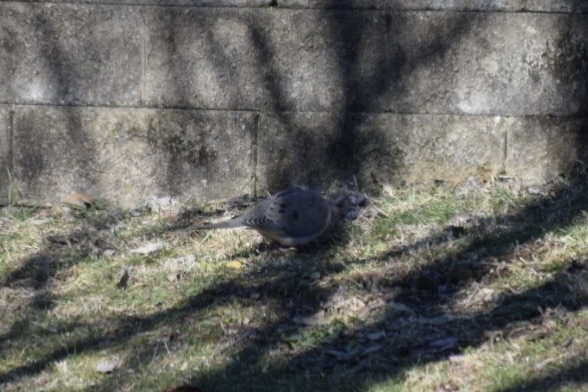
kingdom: Animalia
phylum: Chordata
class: Aves
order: Columbiformes
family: Columbidae
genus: Zenaida
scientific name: Zenaida macroura
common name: Mourning dove
